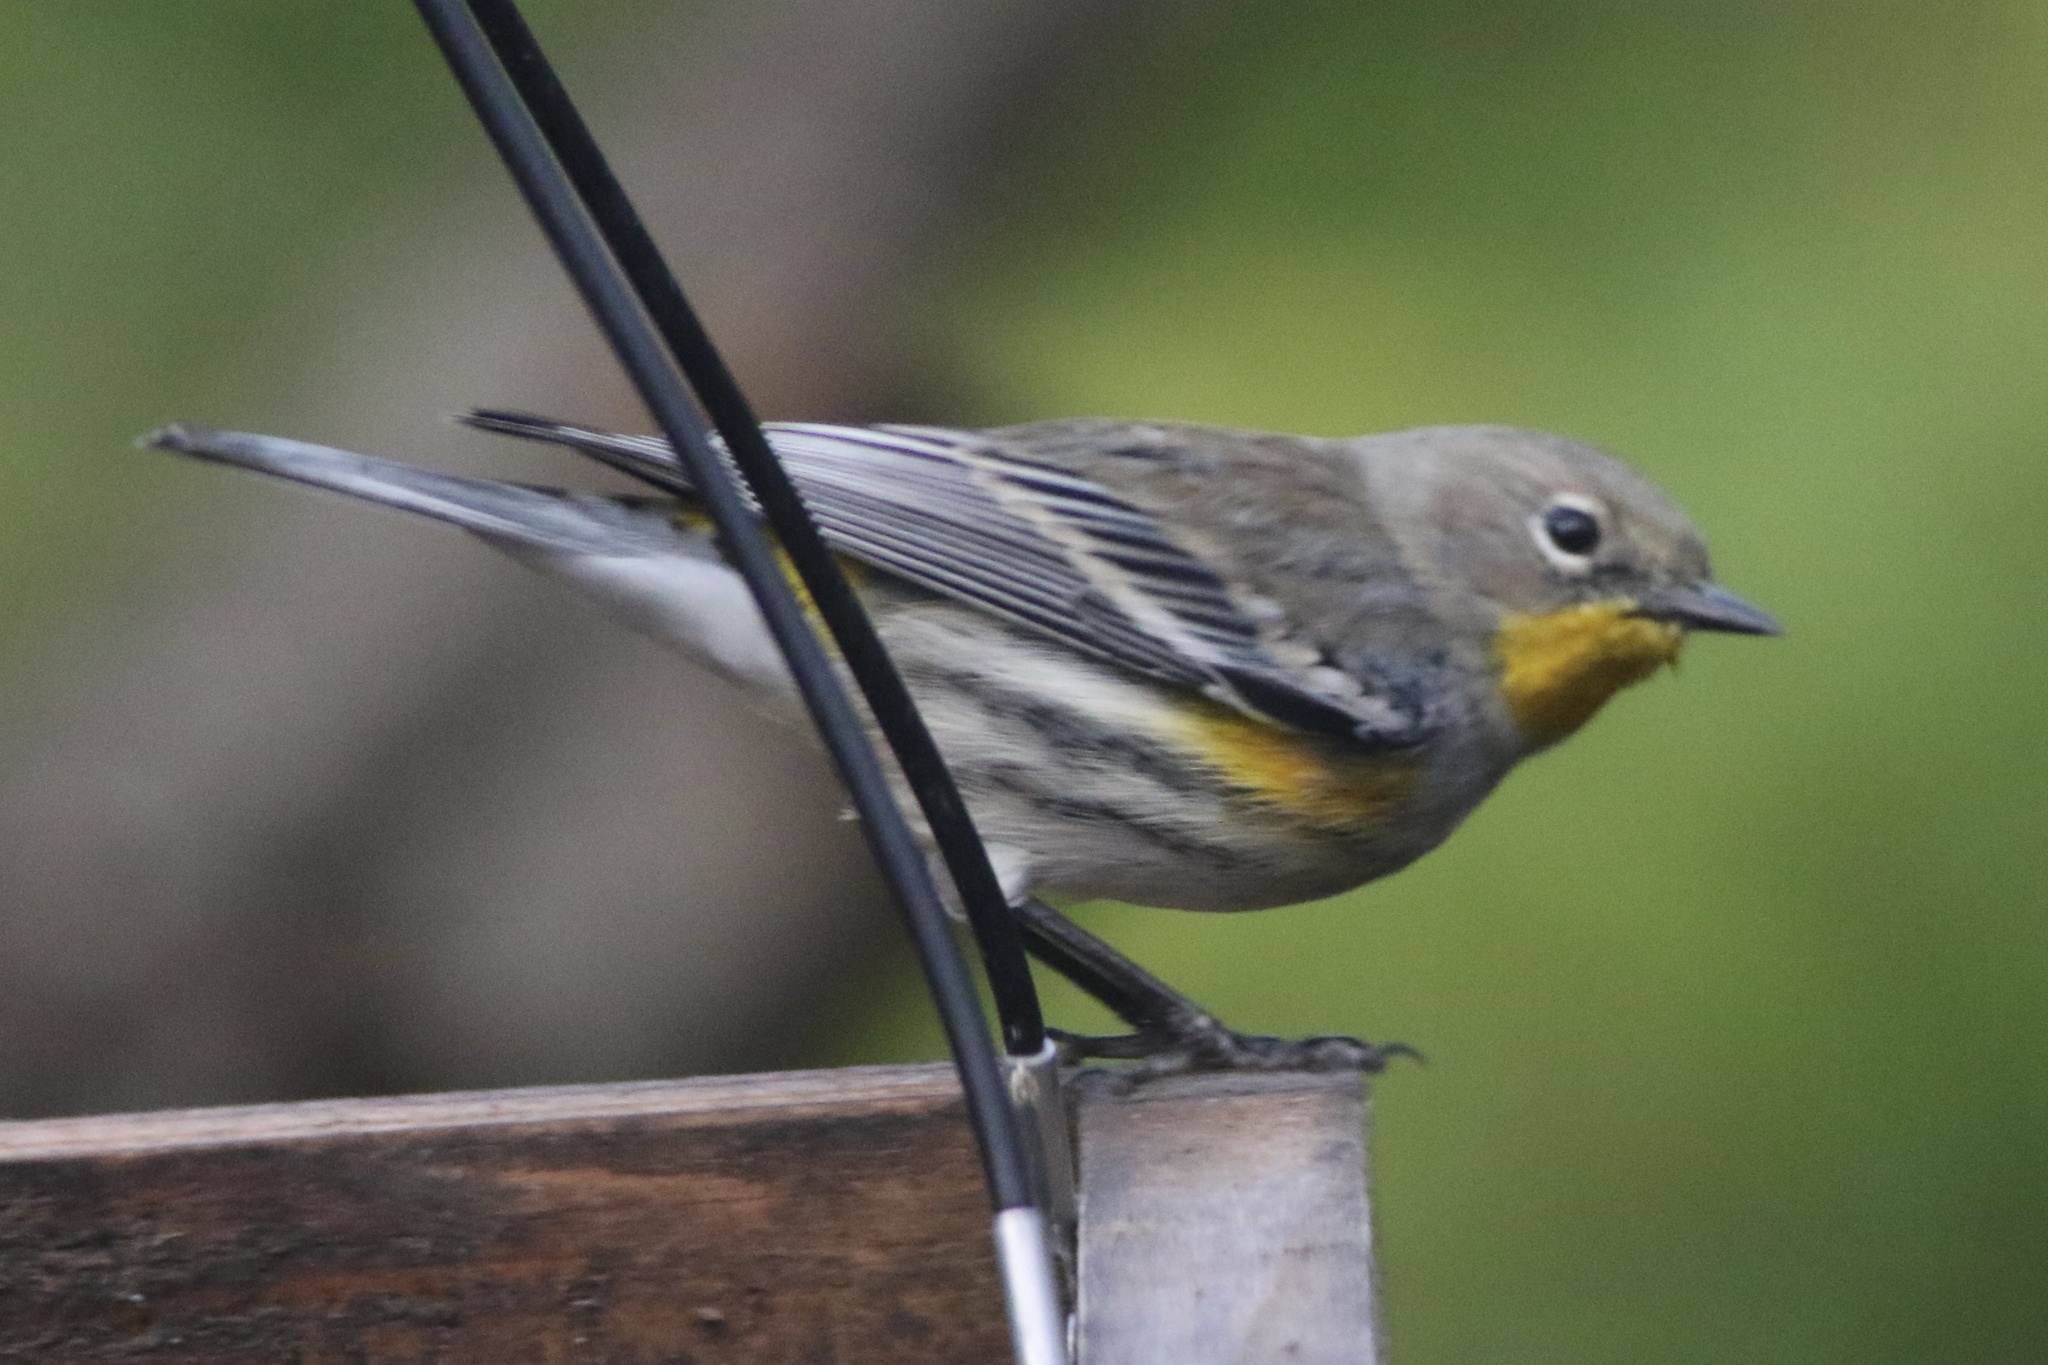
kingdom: Animalia
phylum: Chordata
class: Aves
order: Passeriformes
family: Parulidae
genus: Setophaga
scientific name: Setophaga coronata
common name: Myrtle warbler
